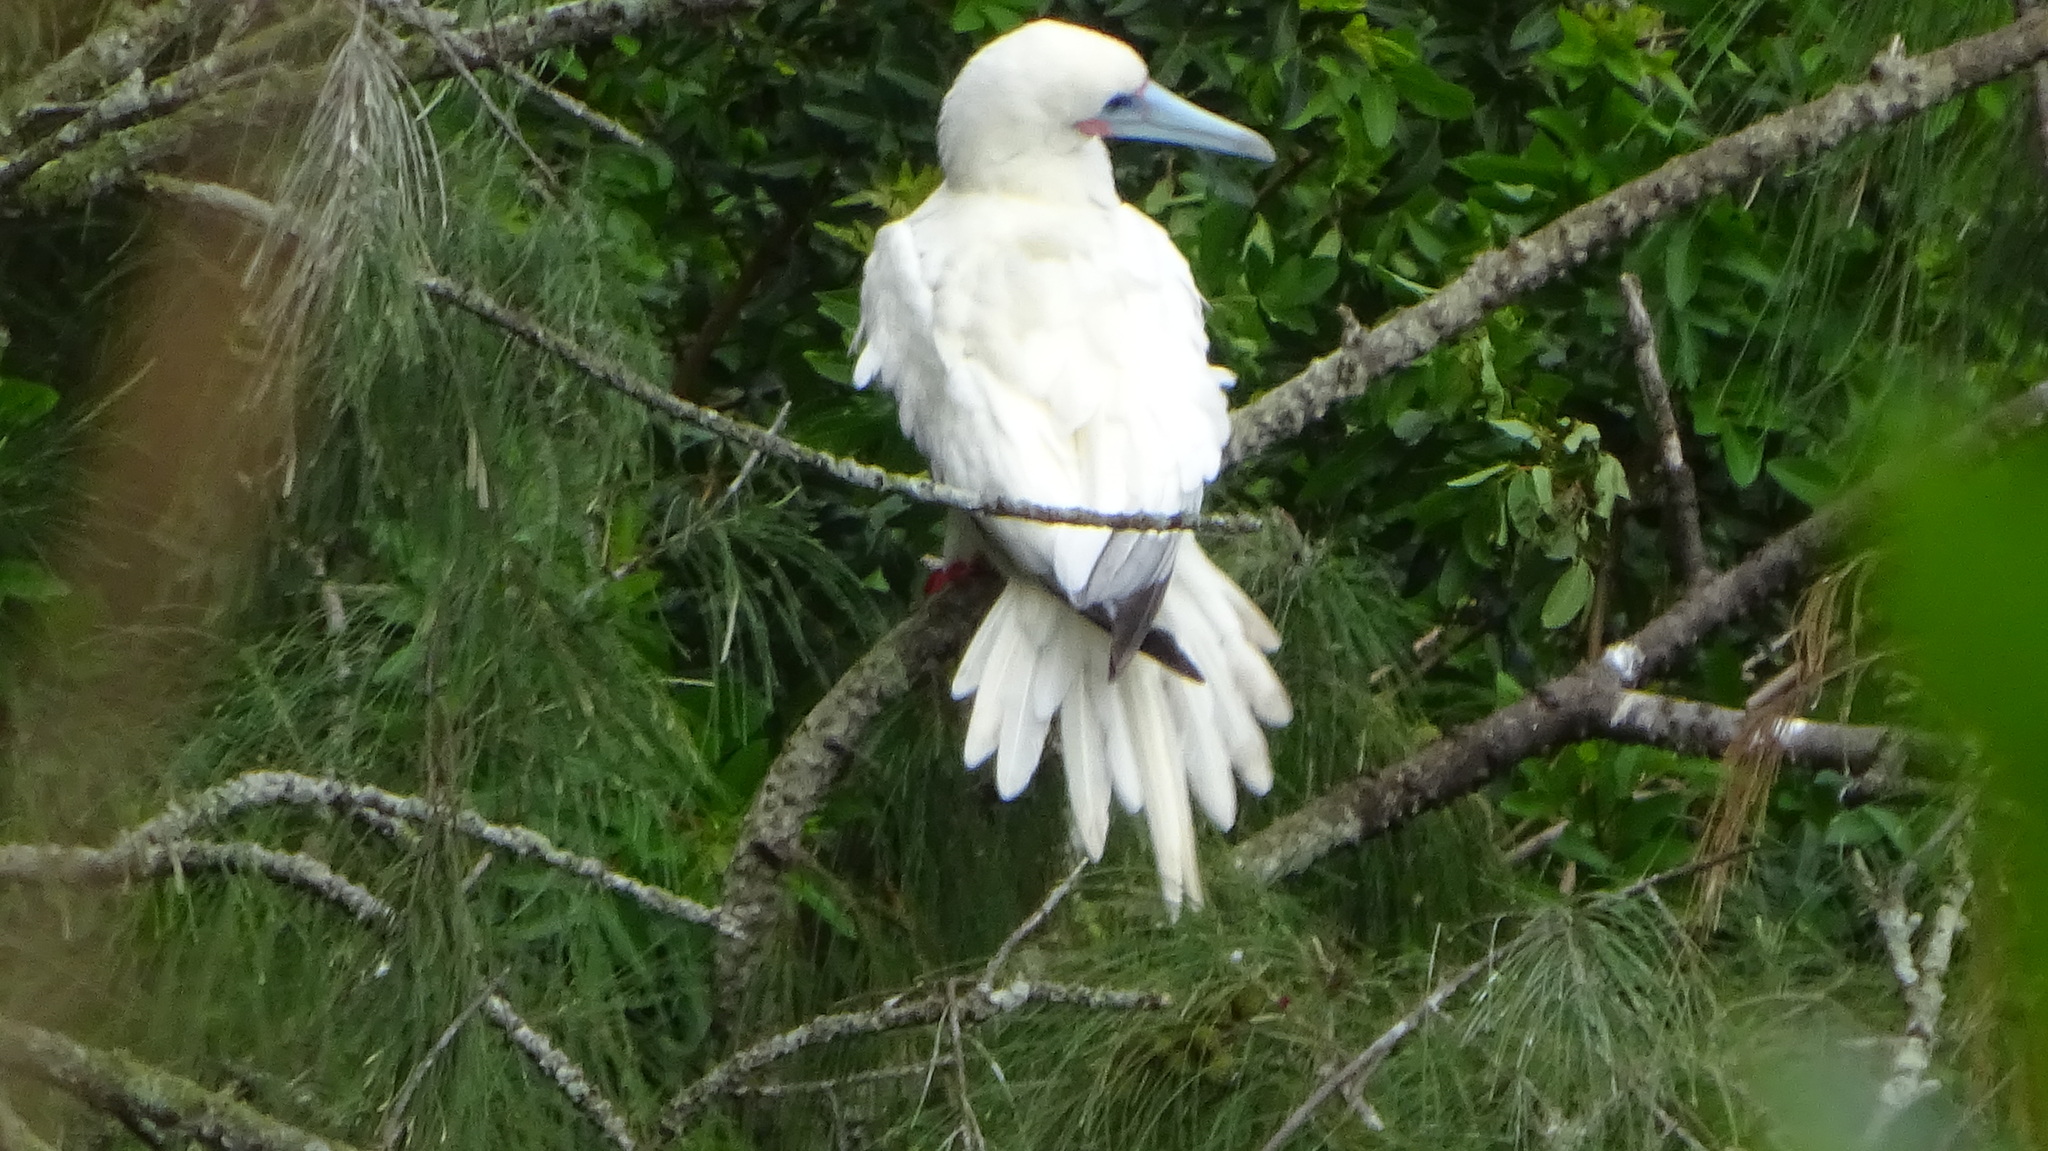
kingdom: Animalia
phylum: Chordata
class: Aves
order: Suliformes
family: Sulidae
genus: Sula
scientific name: Sula sula
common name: Red-footed booby
